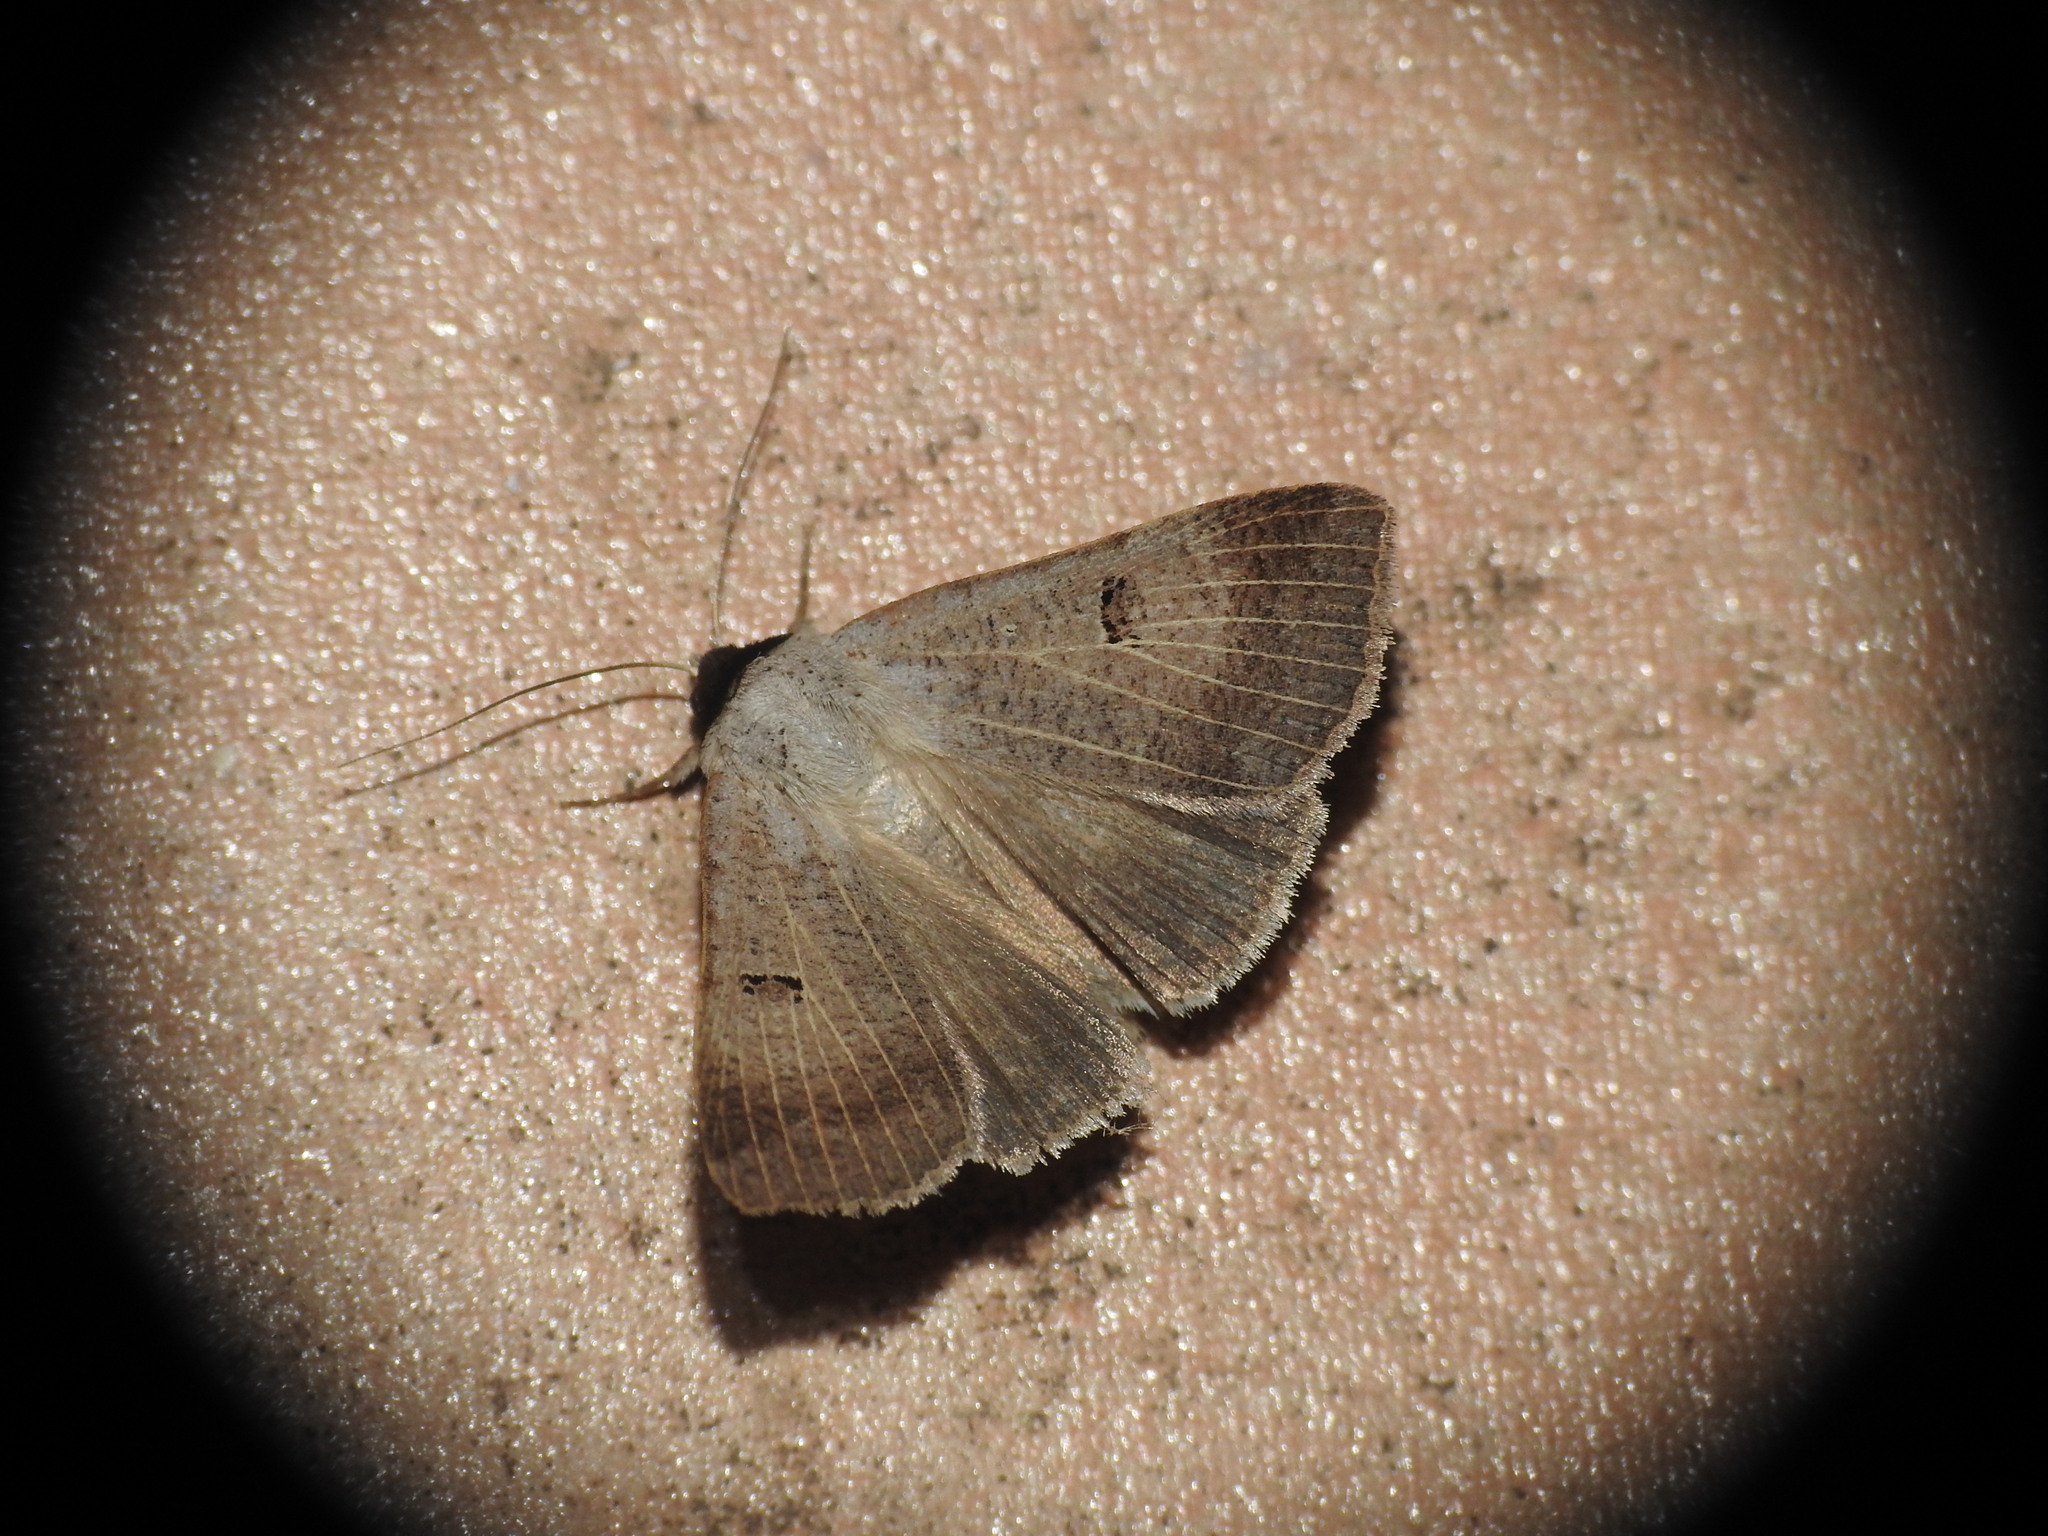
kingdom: Animalia
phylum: Arthropoda
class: Insecta
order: Lepidoptera
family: Erebidae
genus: Lygephila
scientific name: Lygephila craccae
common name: Scarce blackneck
